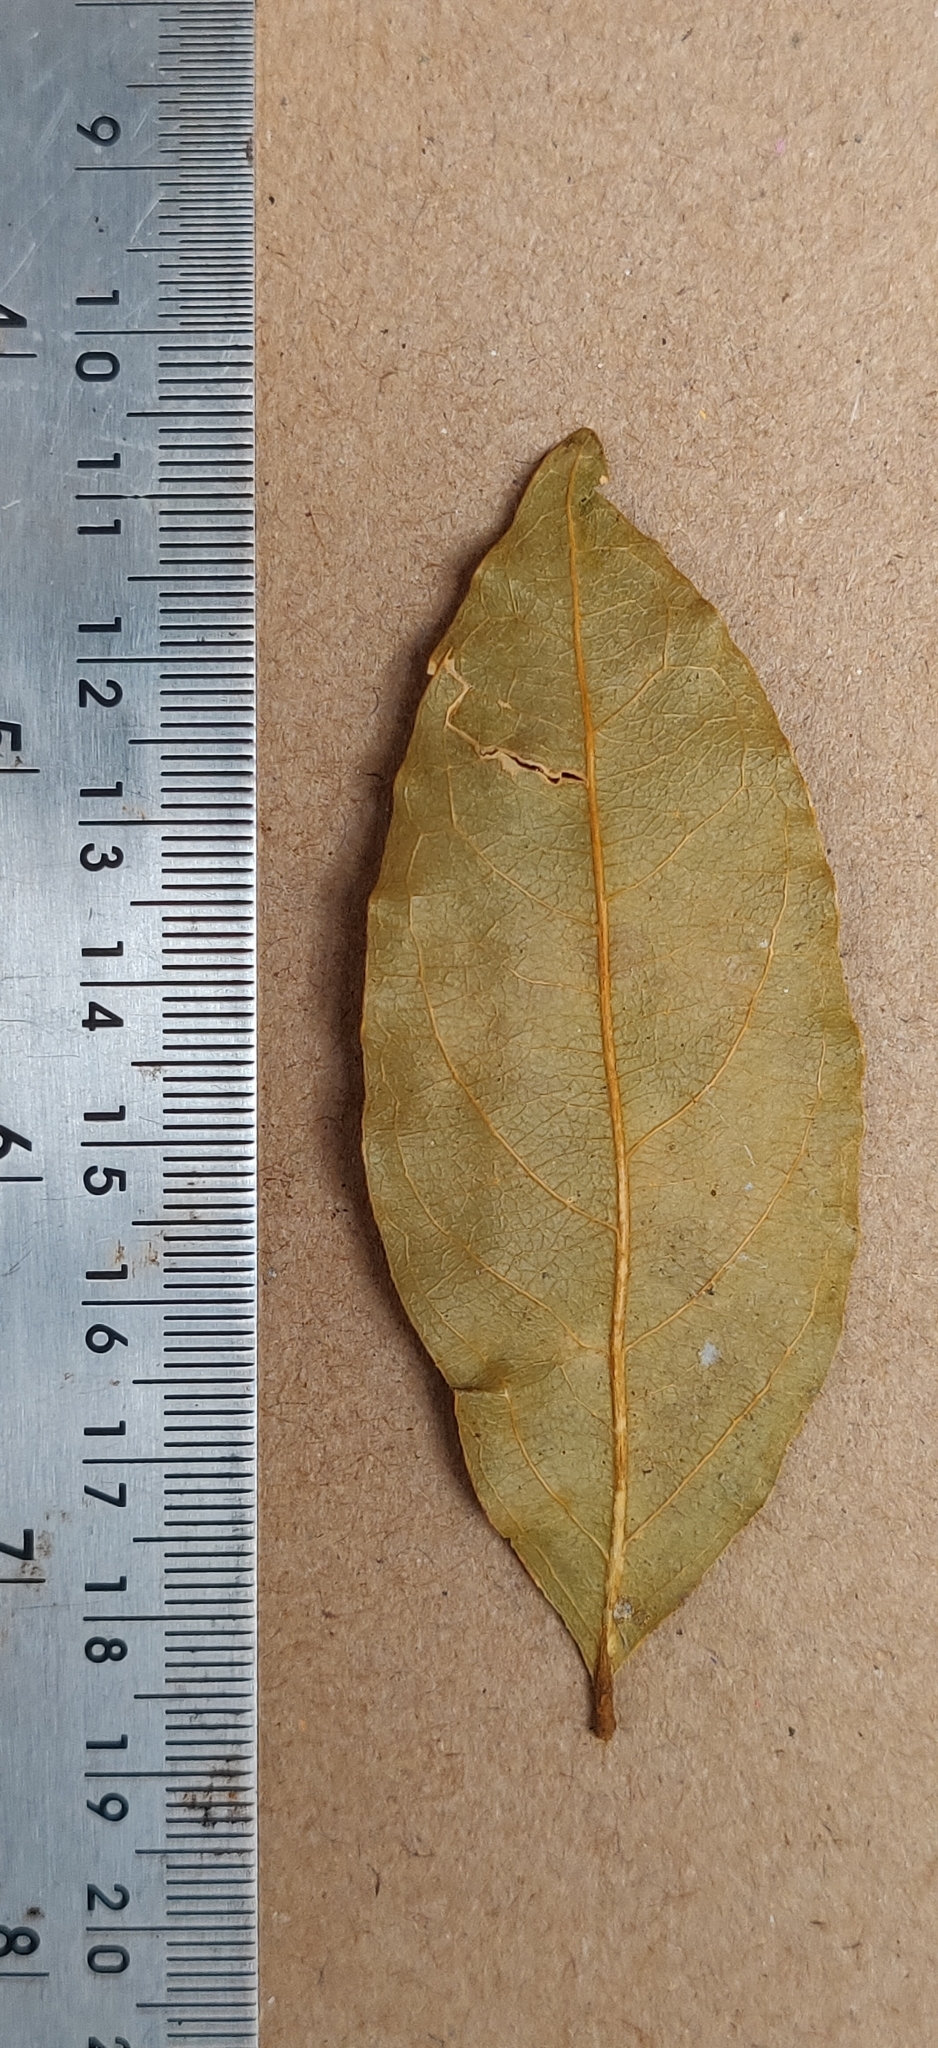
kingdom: Plantae
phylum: Tracheophyta
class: Magnoliopsida
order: Fabales
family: Polygalaceae
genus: Xanthophyllum
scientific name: Xanthophyllum flavescens
